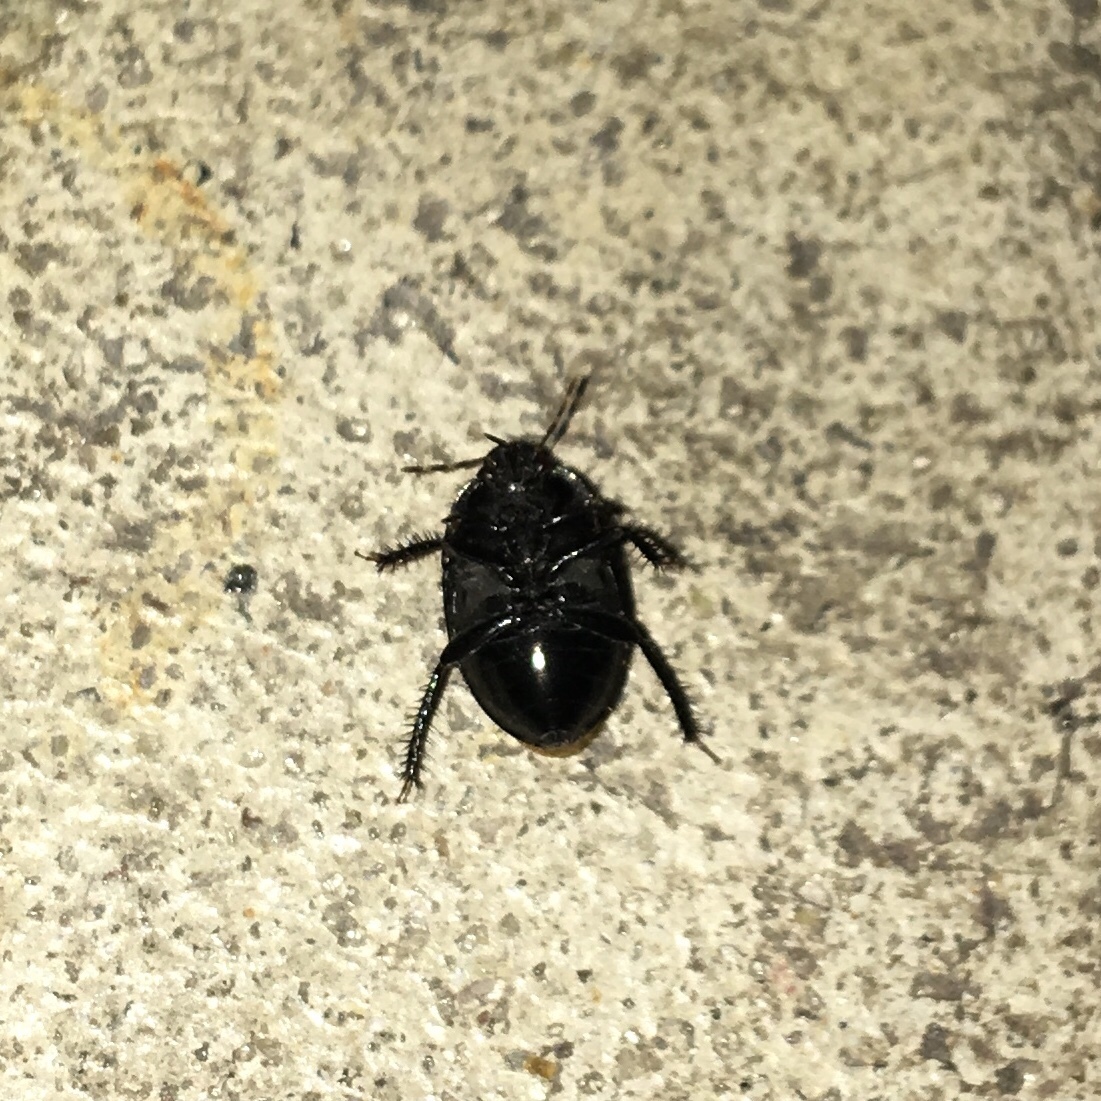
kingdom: Animalia
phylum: Arthropoda
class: Insecta
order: Hemiptera
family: Cydnidae
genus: Pangaeus
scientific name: Pangaeus bilineatus
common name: Burrower bug
